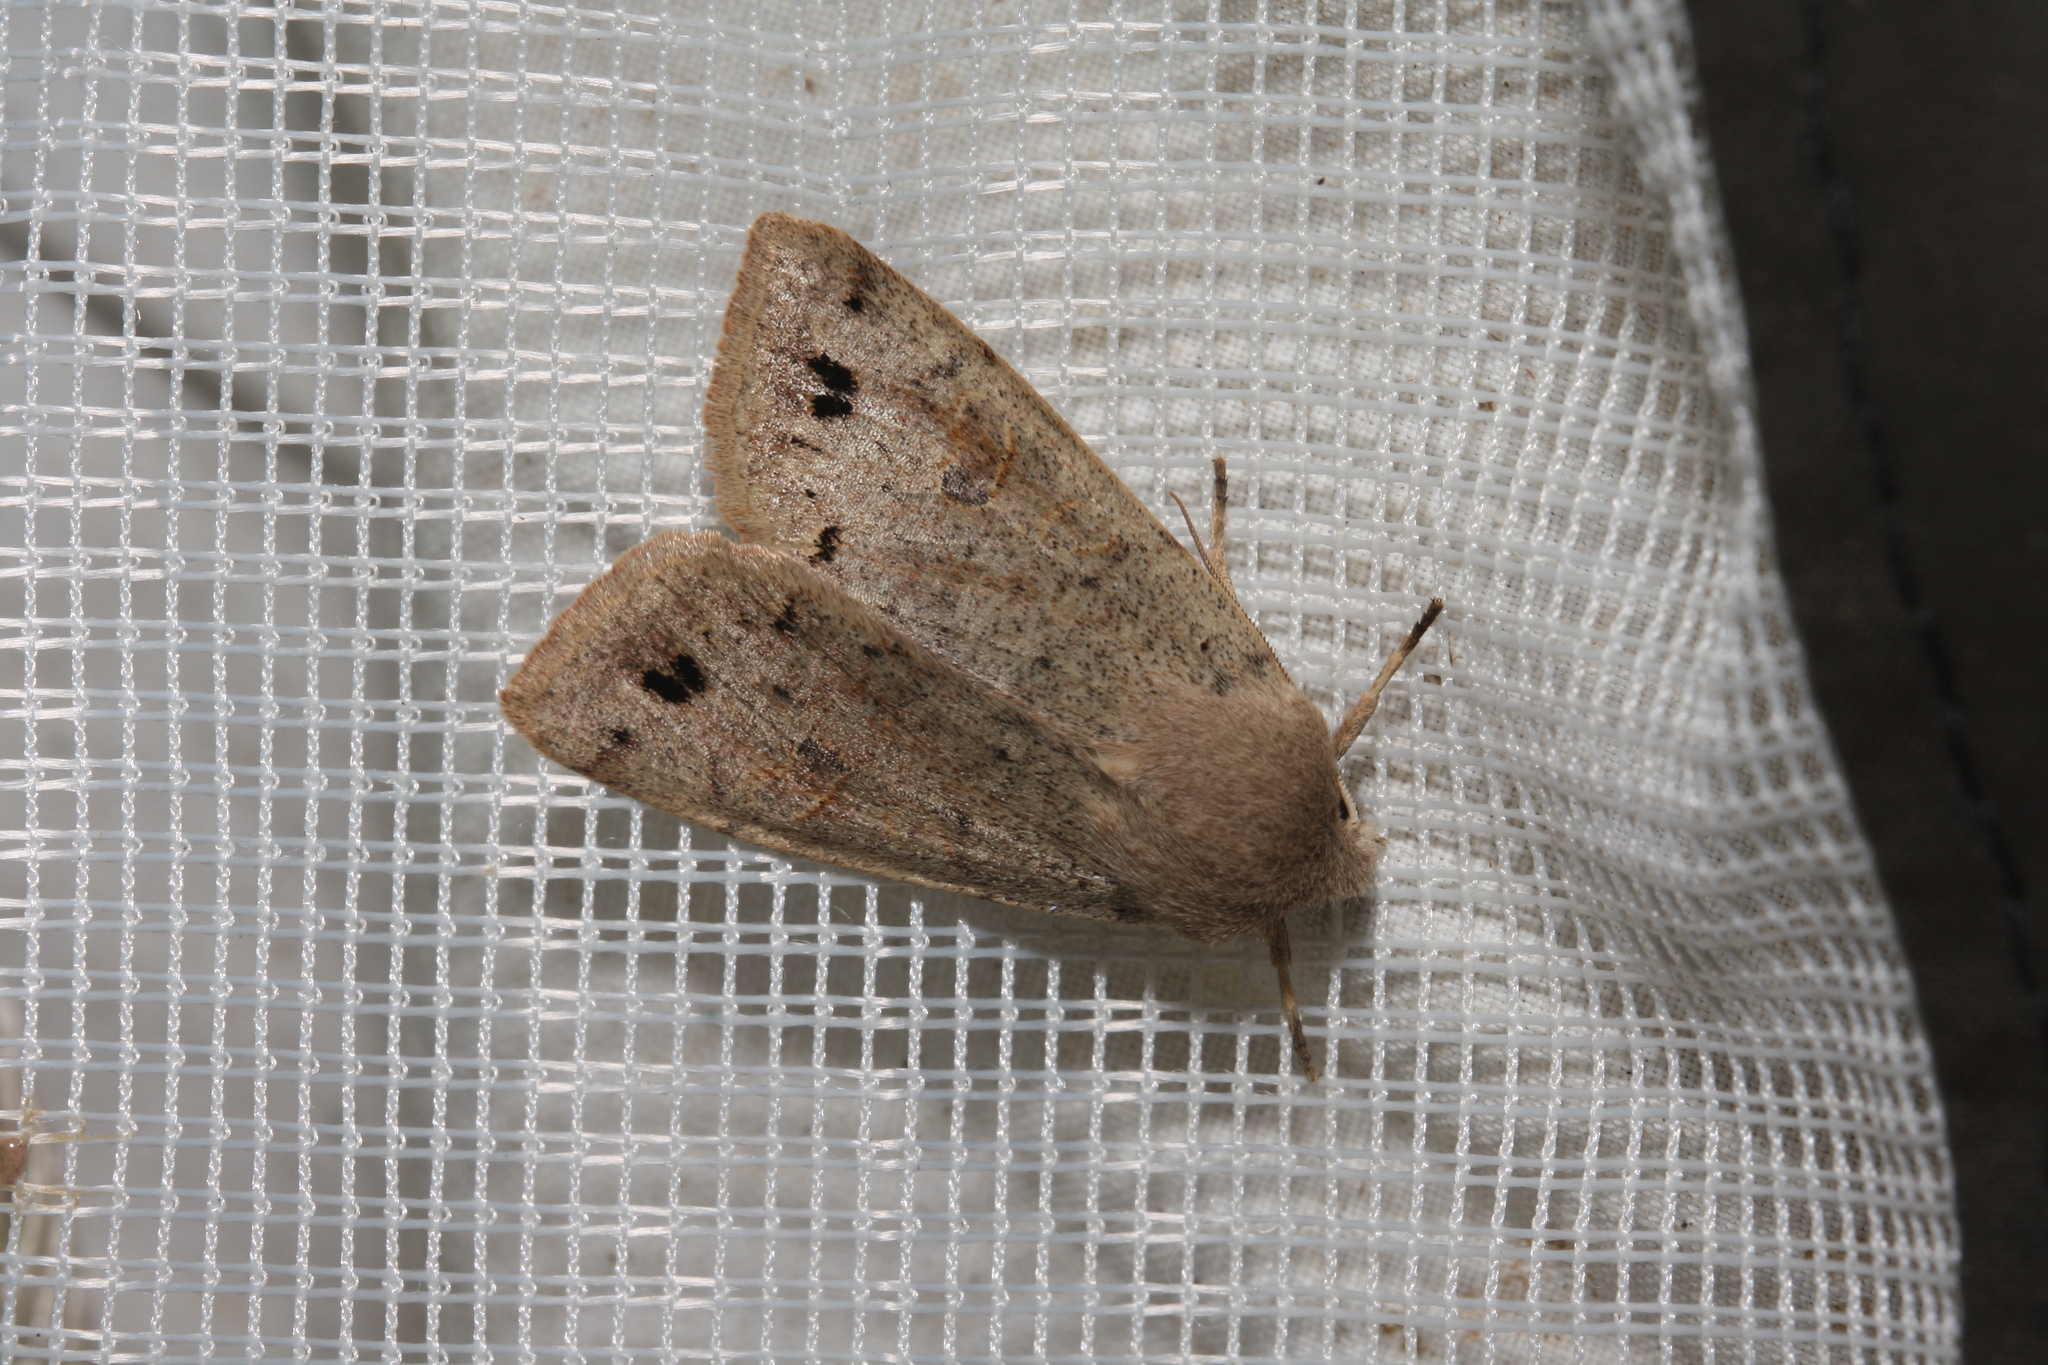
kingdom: Animalia
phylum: Arthropoda
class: Insecta
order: Lepidoptera
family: Noctuidae
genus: Anorthoa
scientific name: Anorthoa munda
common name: Twin-spotted quaker
